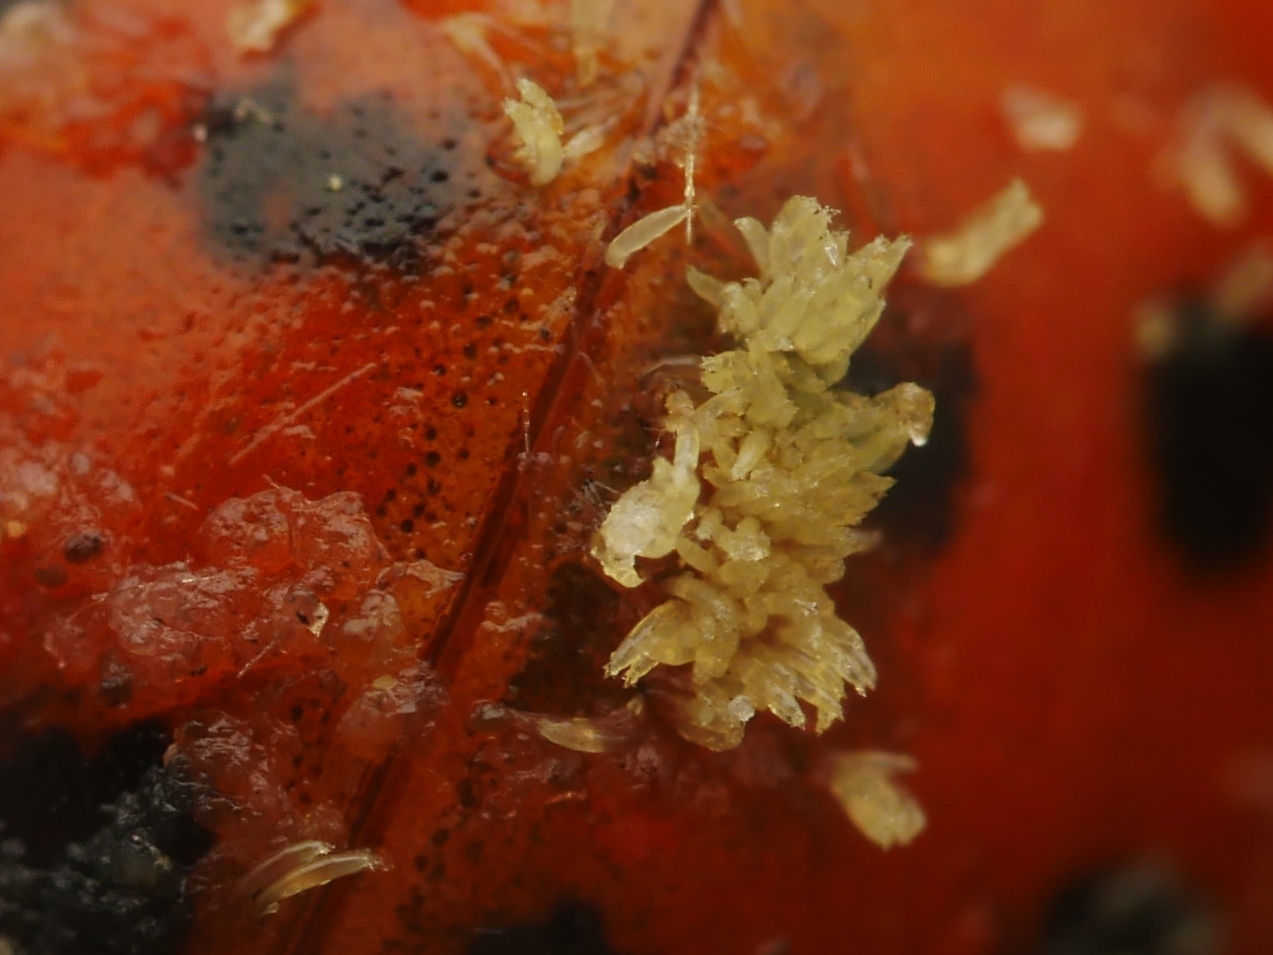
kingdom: Fungi
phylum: Ascomycota
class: Laboulbeniomycetes
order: Laboulbeniales
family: Laboulbeniaceae
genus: Hesperomyces
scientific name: Hesperomyces harmoniae
